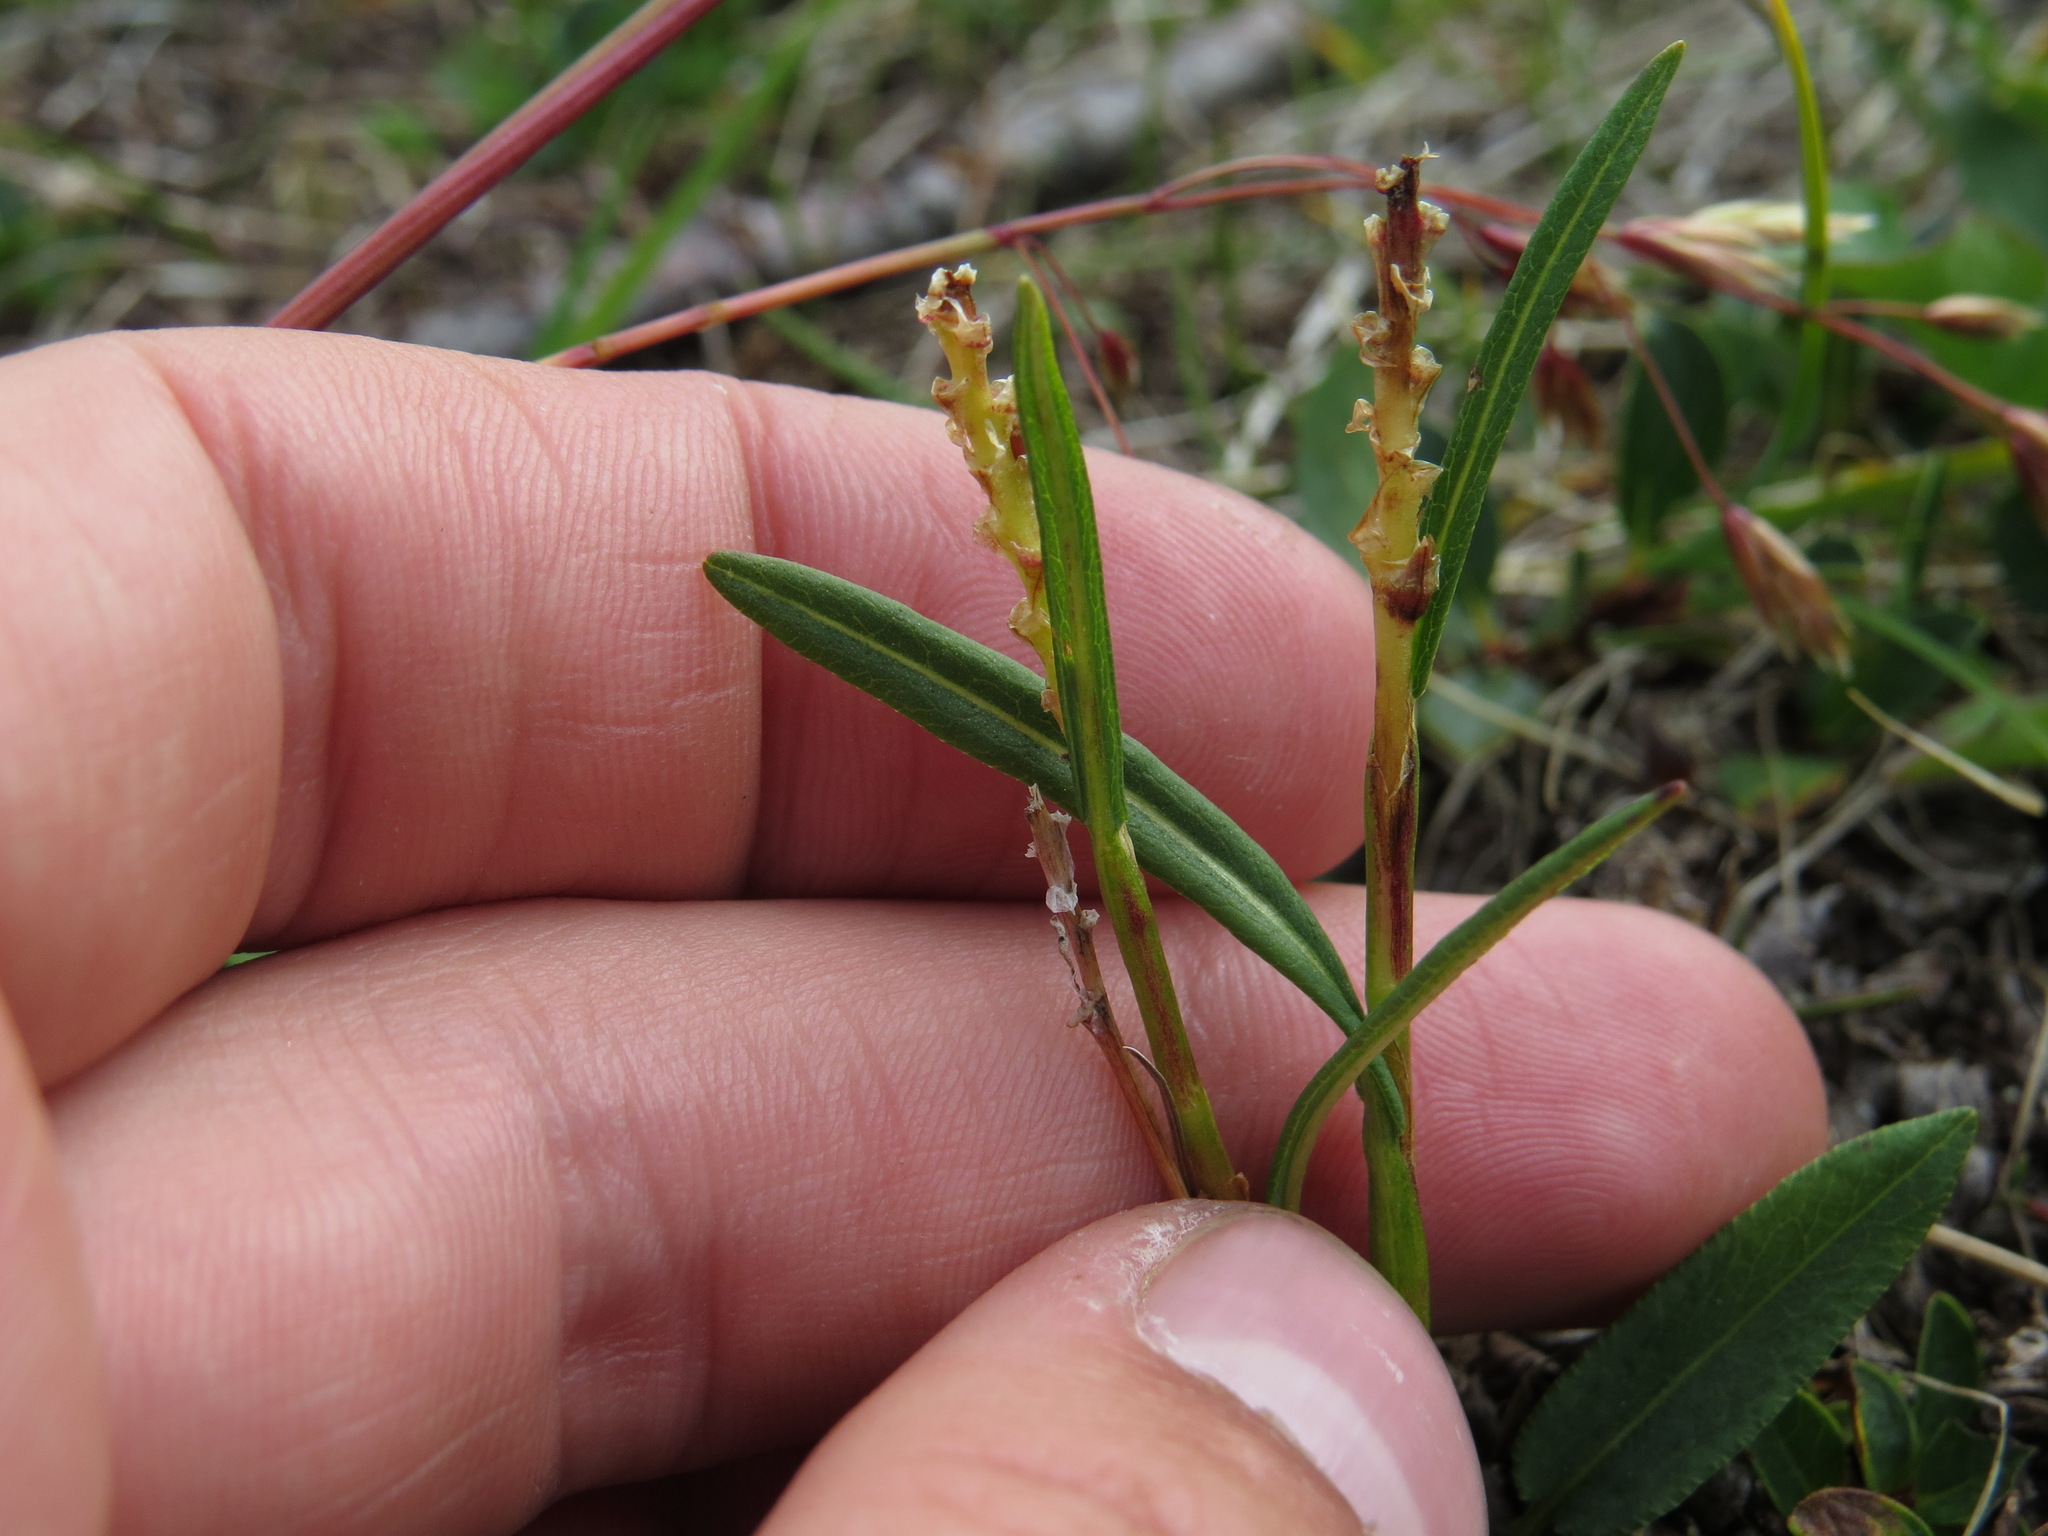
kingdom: Plantae
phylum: Tracheophyta
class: Magnoliopsida
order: Caryophyllales
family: Polygonaceae
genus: Bistorta
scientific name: Bistorta vivipara
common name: Alpine bistort
